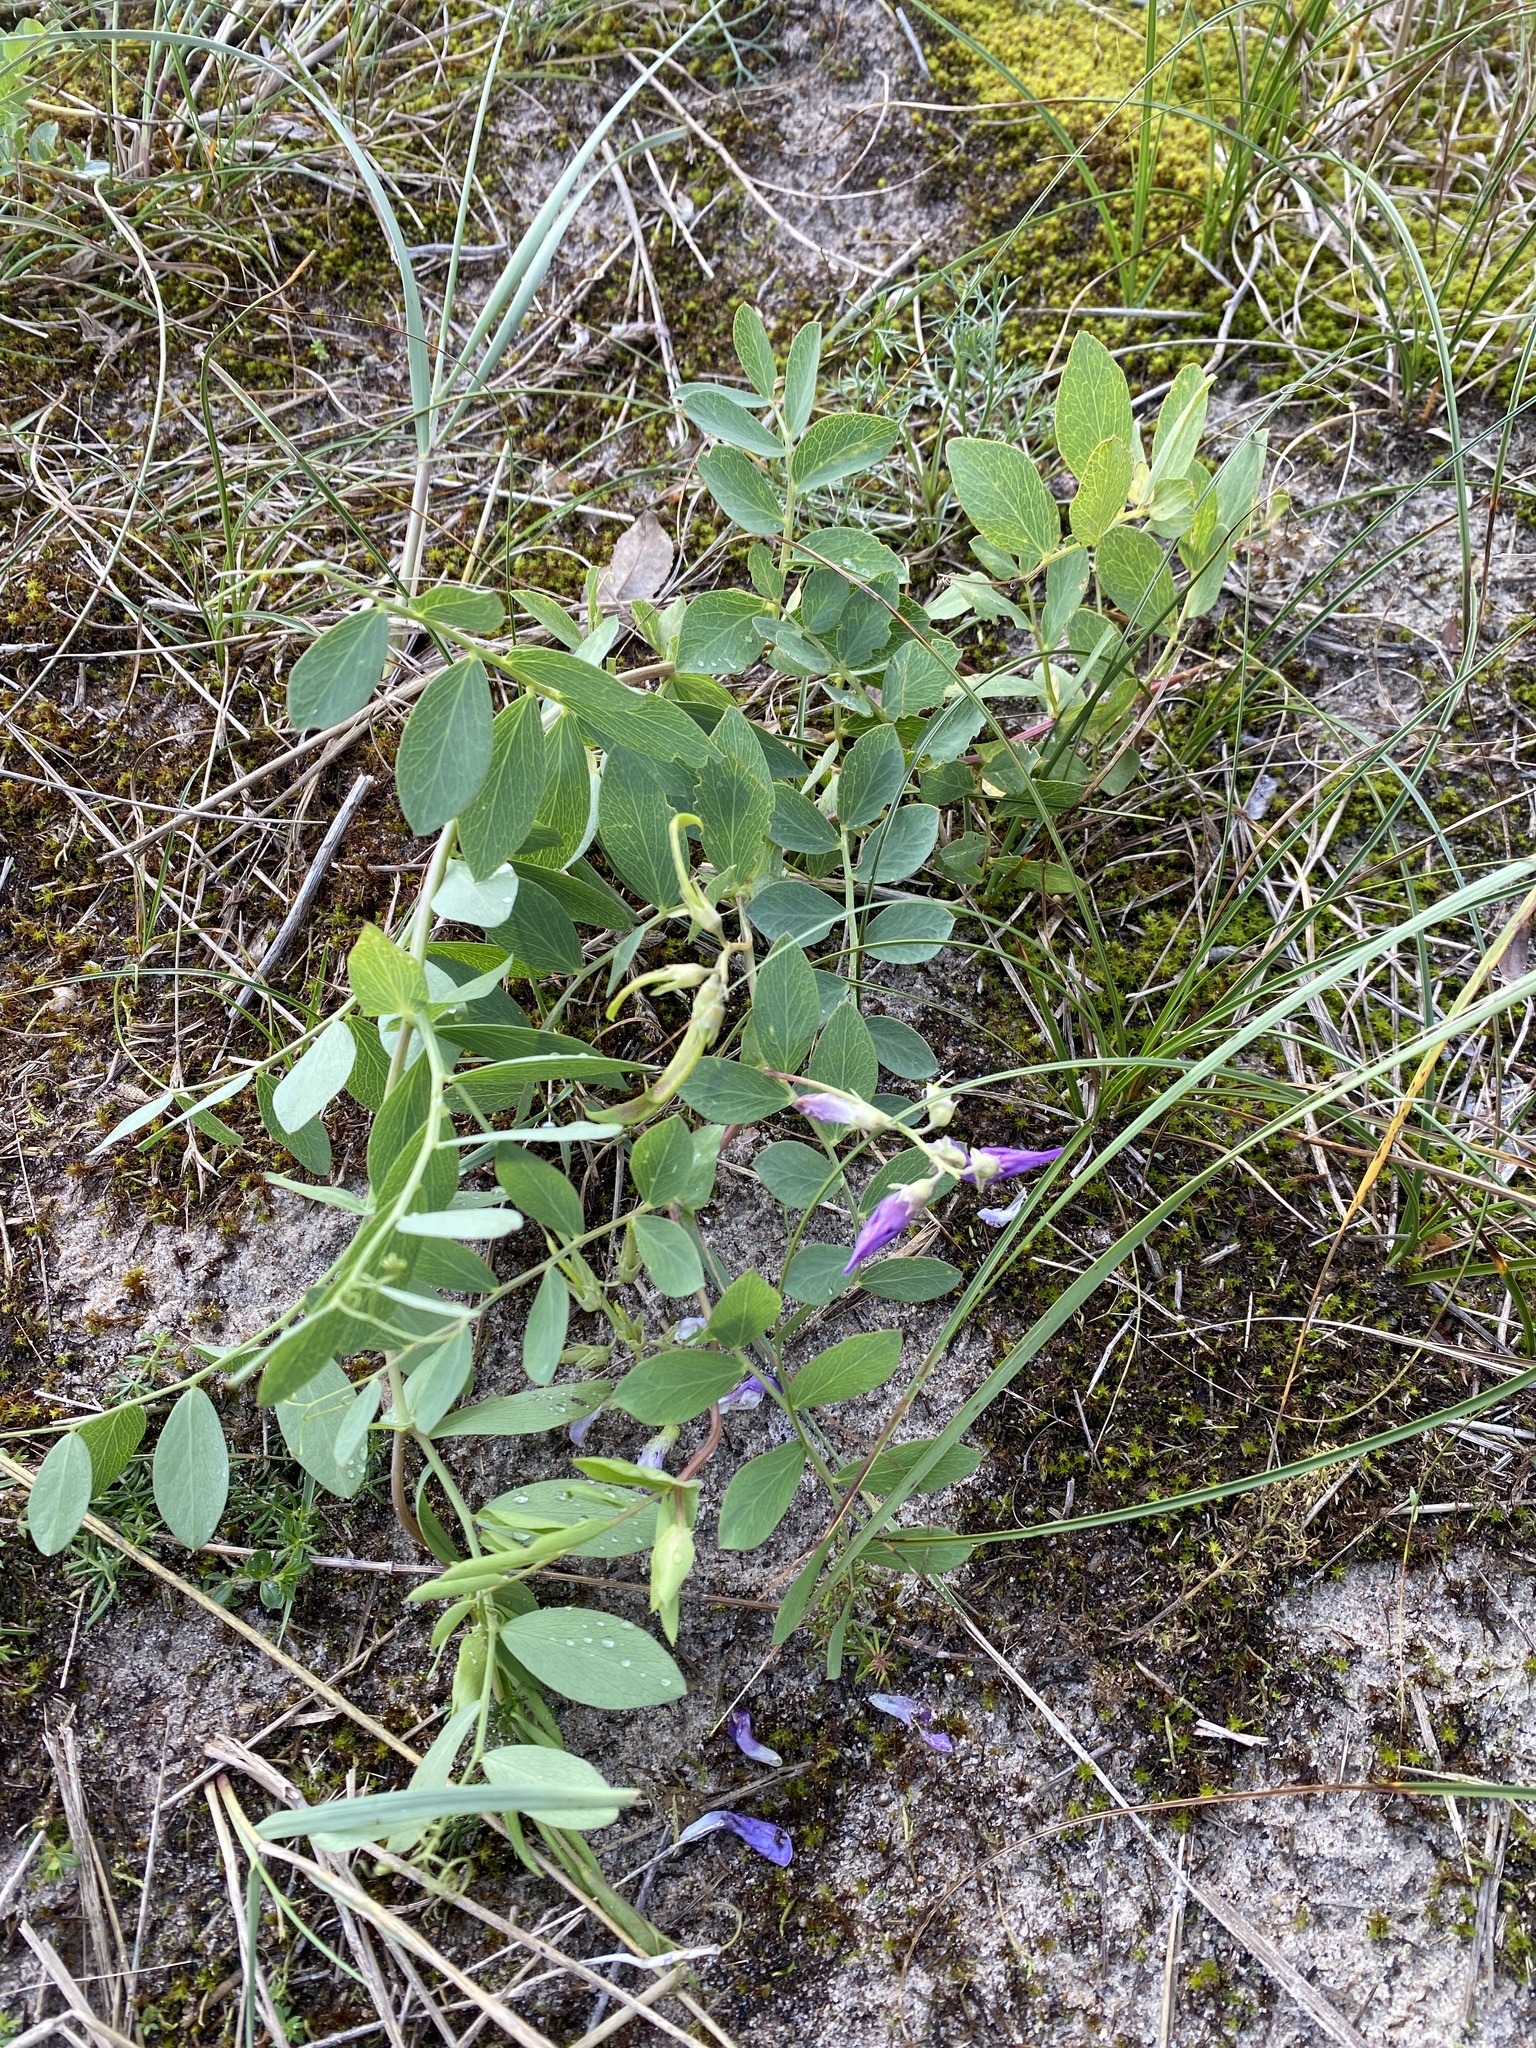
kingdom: Plantae
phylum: Tracheophyta
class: Magnoliopsida
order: Fabales
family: Fabaceae
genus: Lathyrus
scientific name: Lathyrus japonicus
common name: Sea pea
